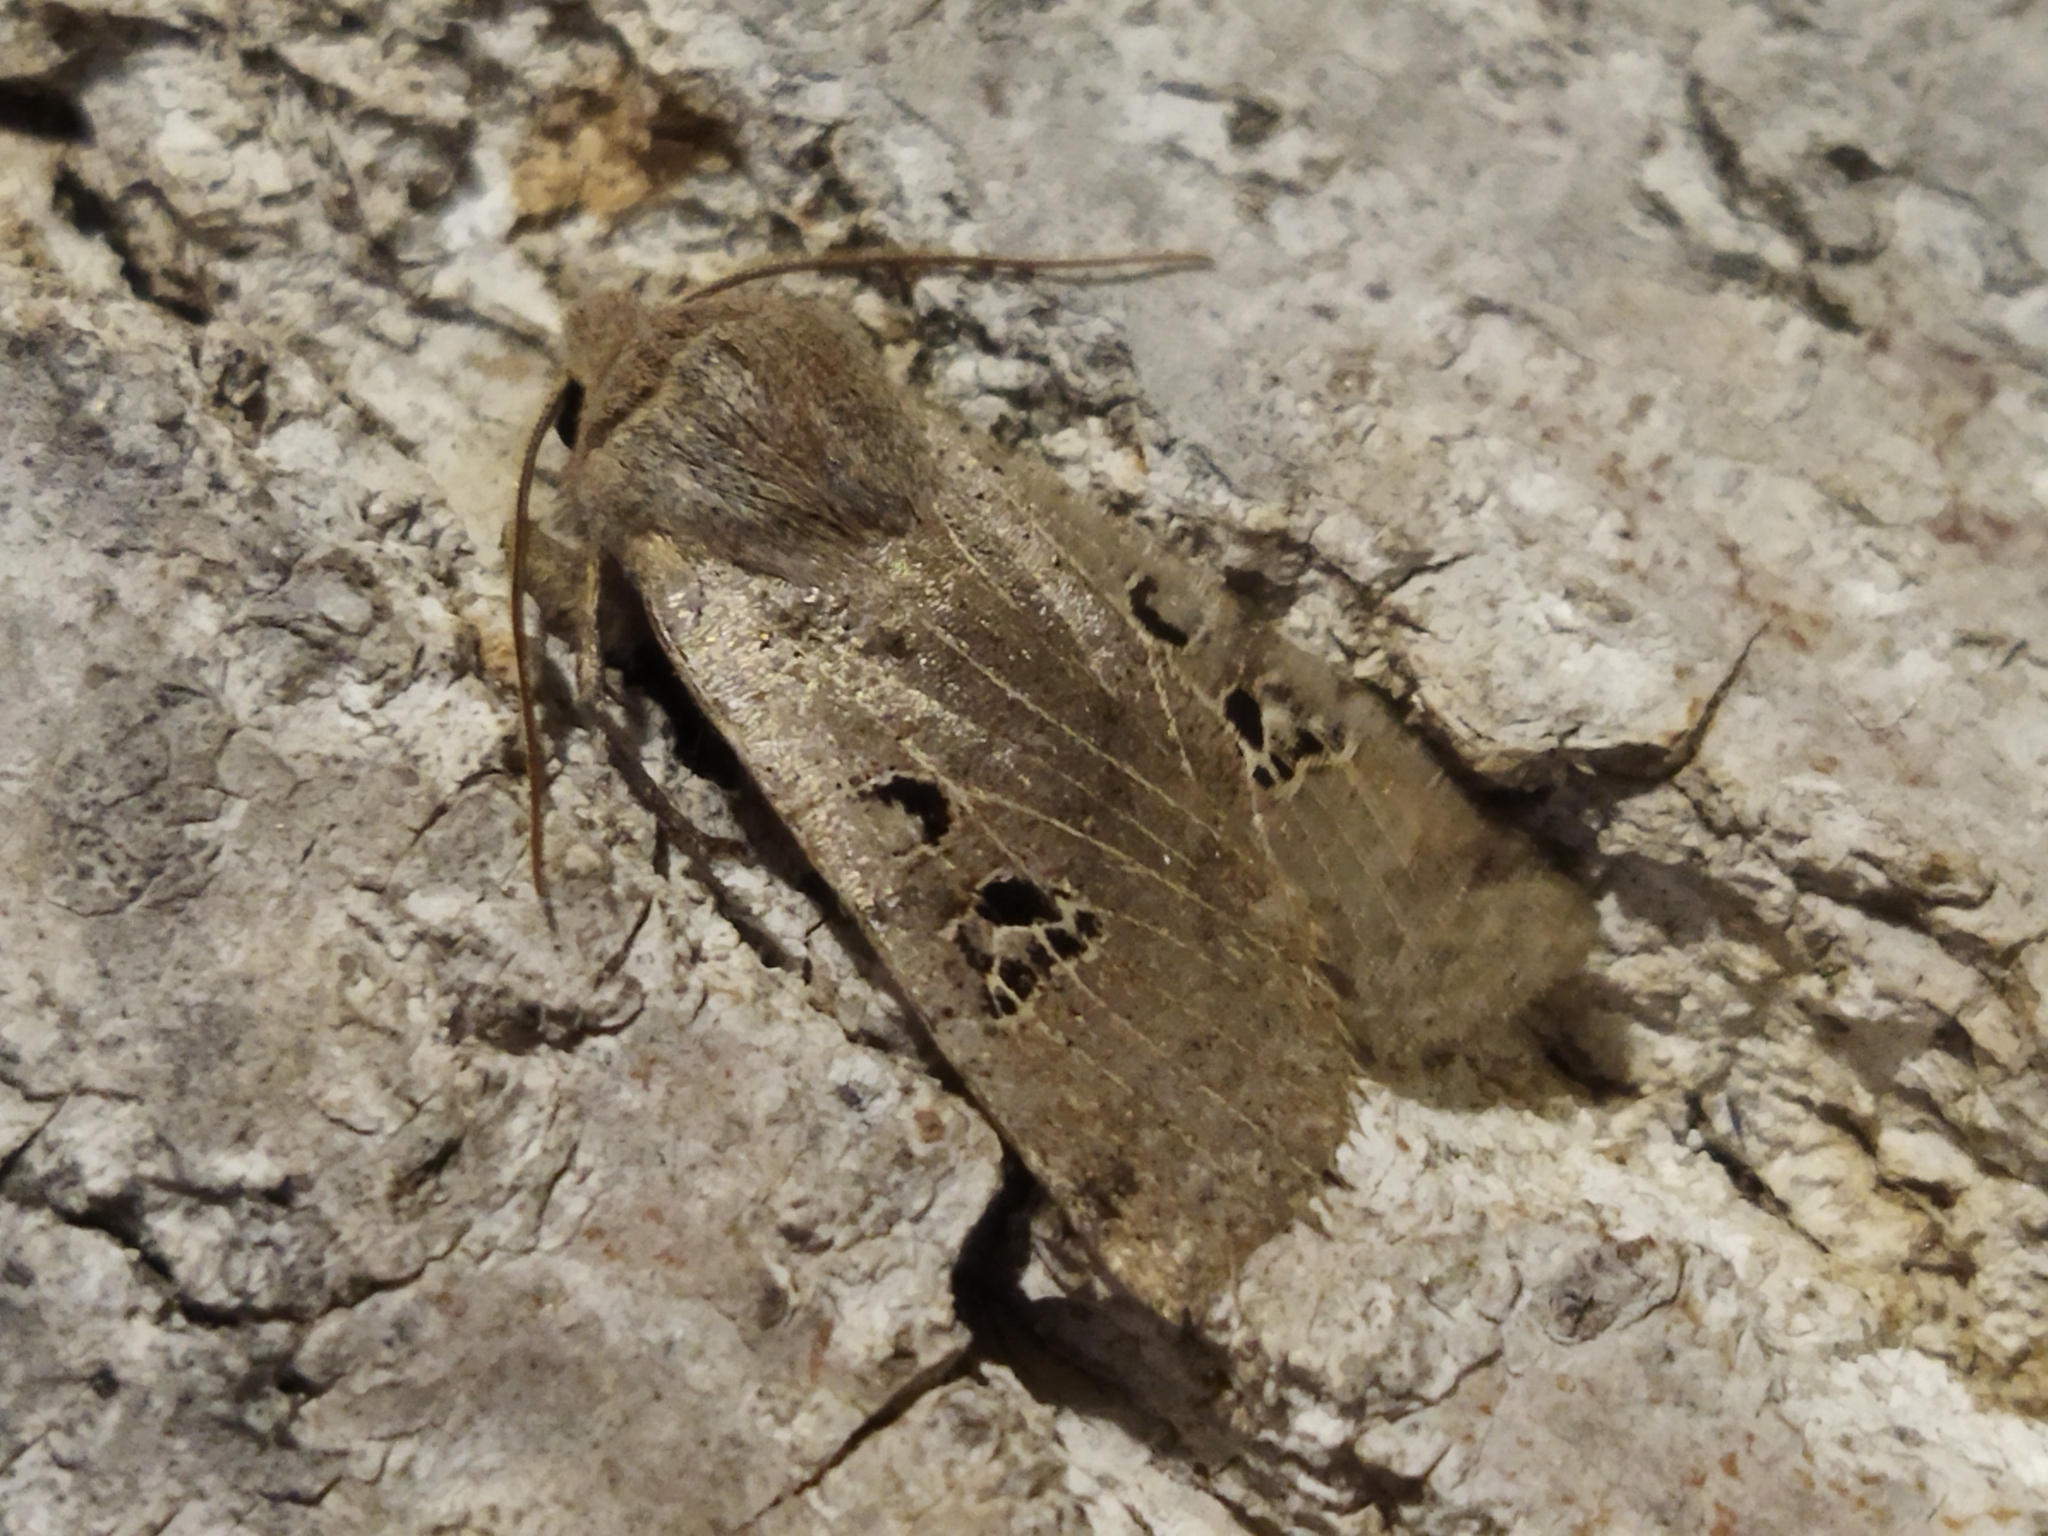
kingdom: Animalia
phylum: Arthropoda
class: Insecta
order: Lepidoptera
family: Noctuidae
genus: Conistra
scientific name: Conistra rubiginosa
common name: Black-spotted chestnut
